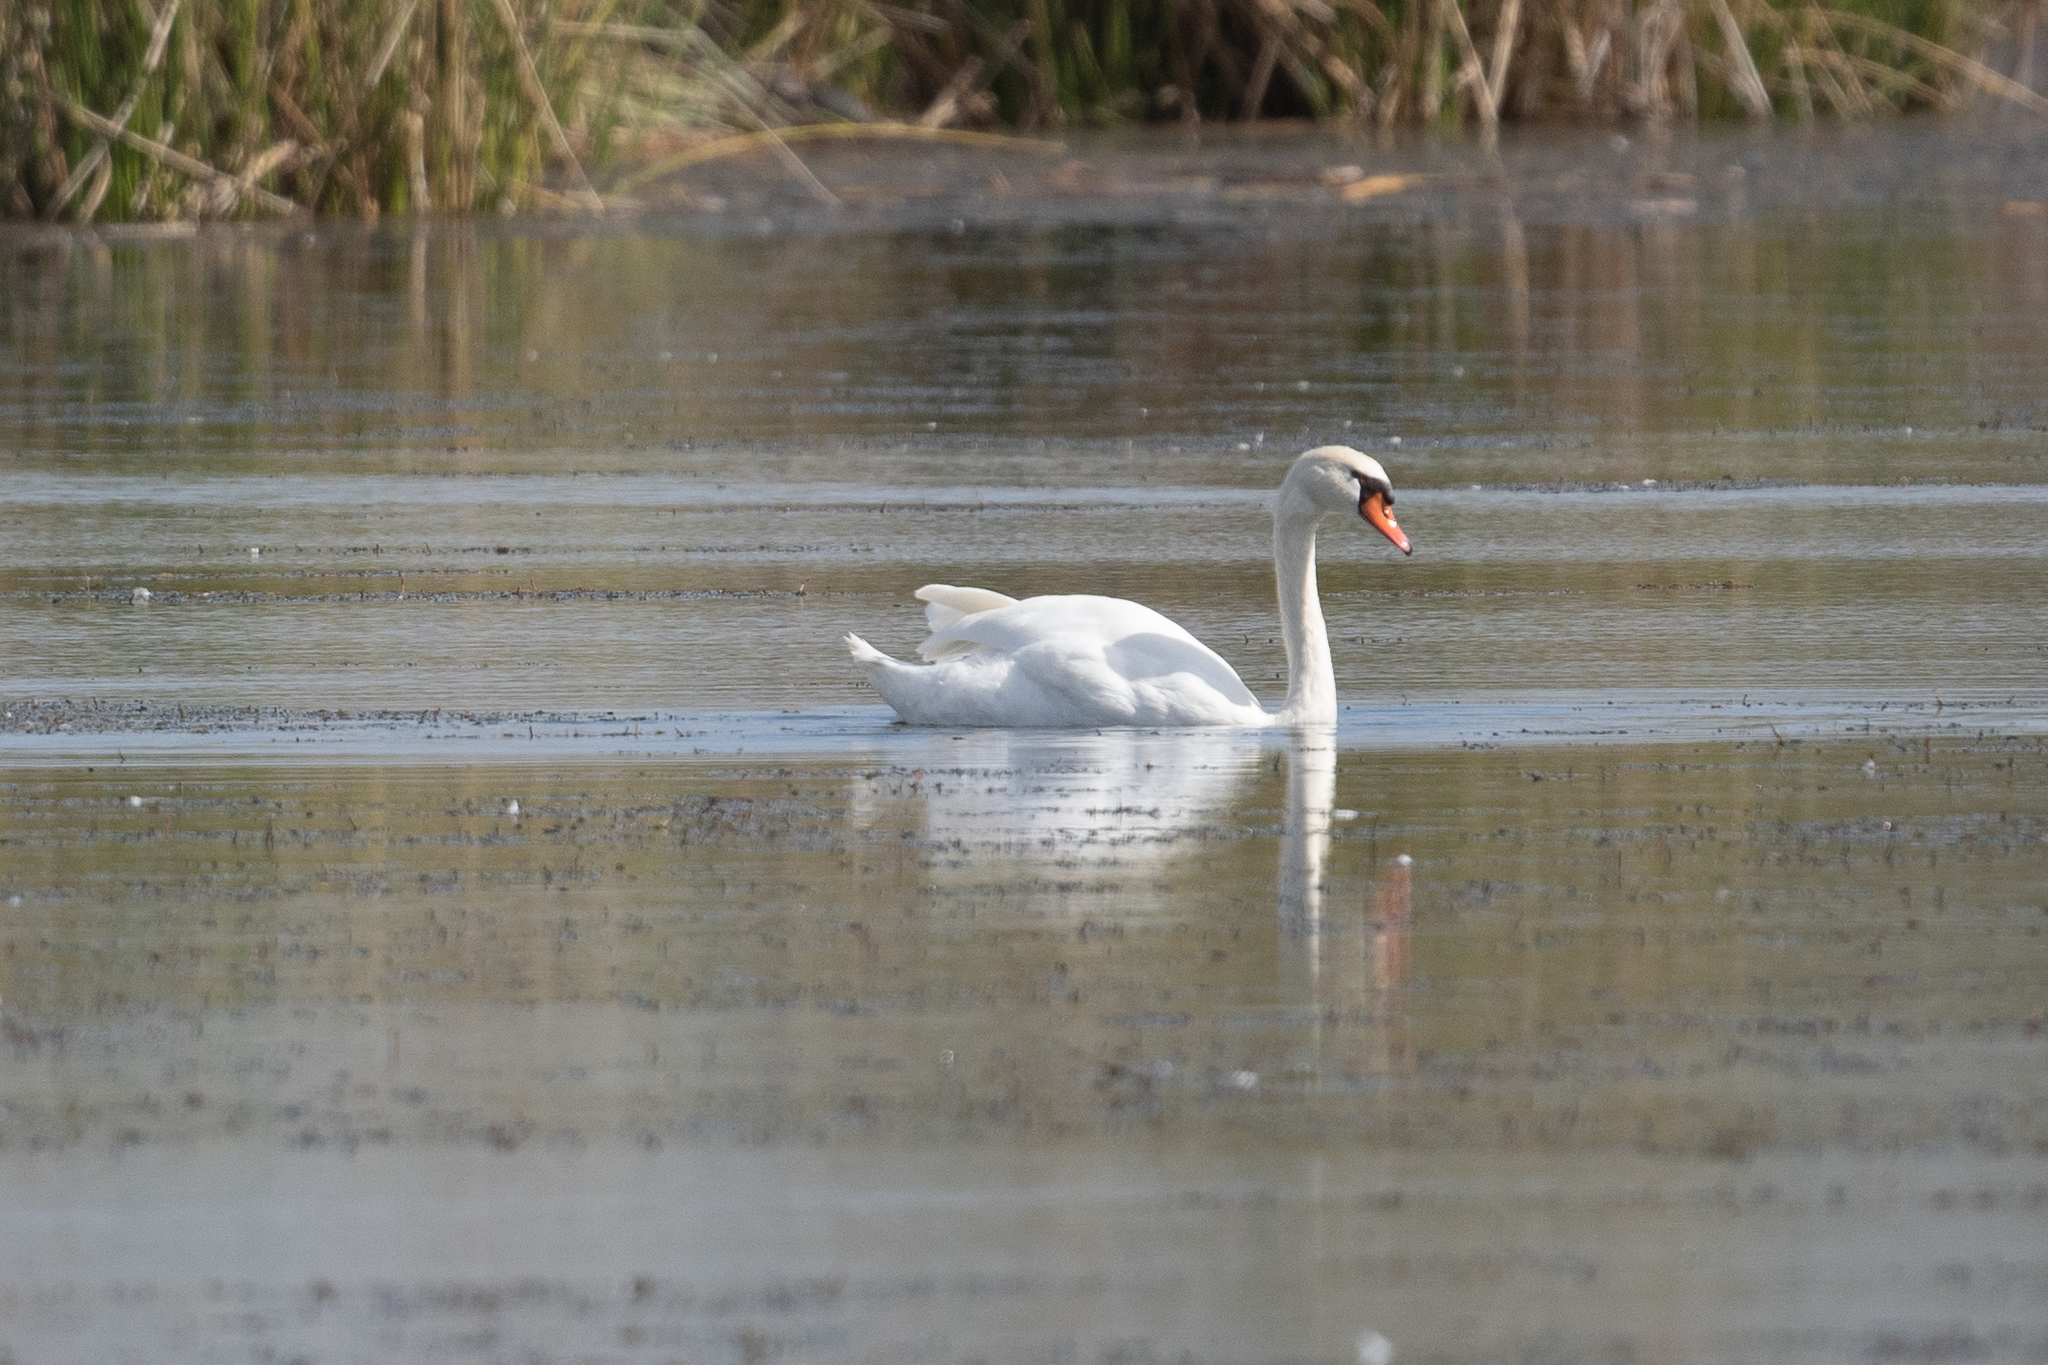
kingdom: Animalia
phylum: Chordata
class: Aves
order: Anseriformes
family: Anatidae
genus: Cygnus
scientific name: Cygnus olor
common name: Mute swan
